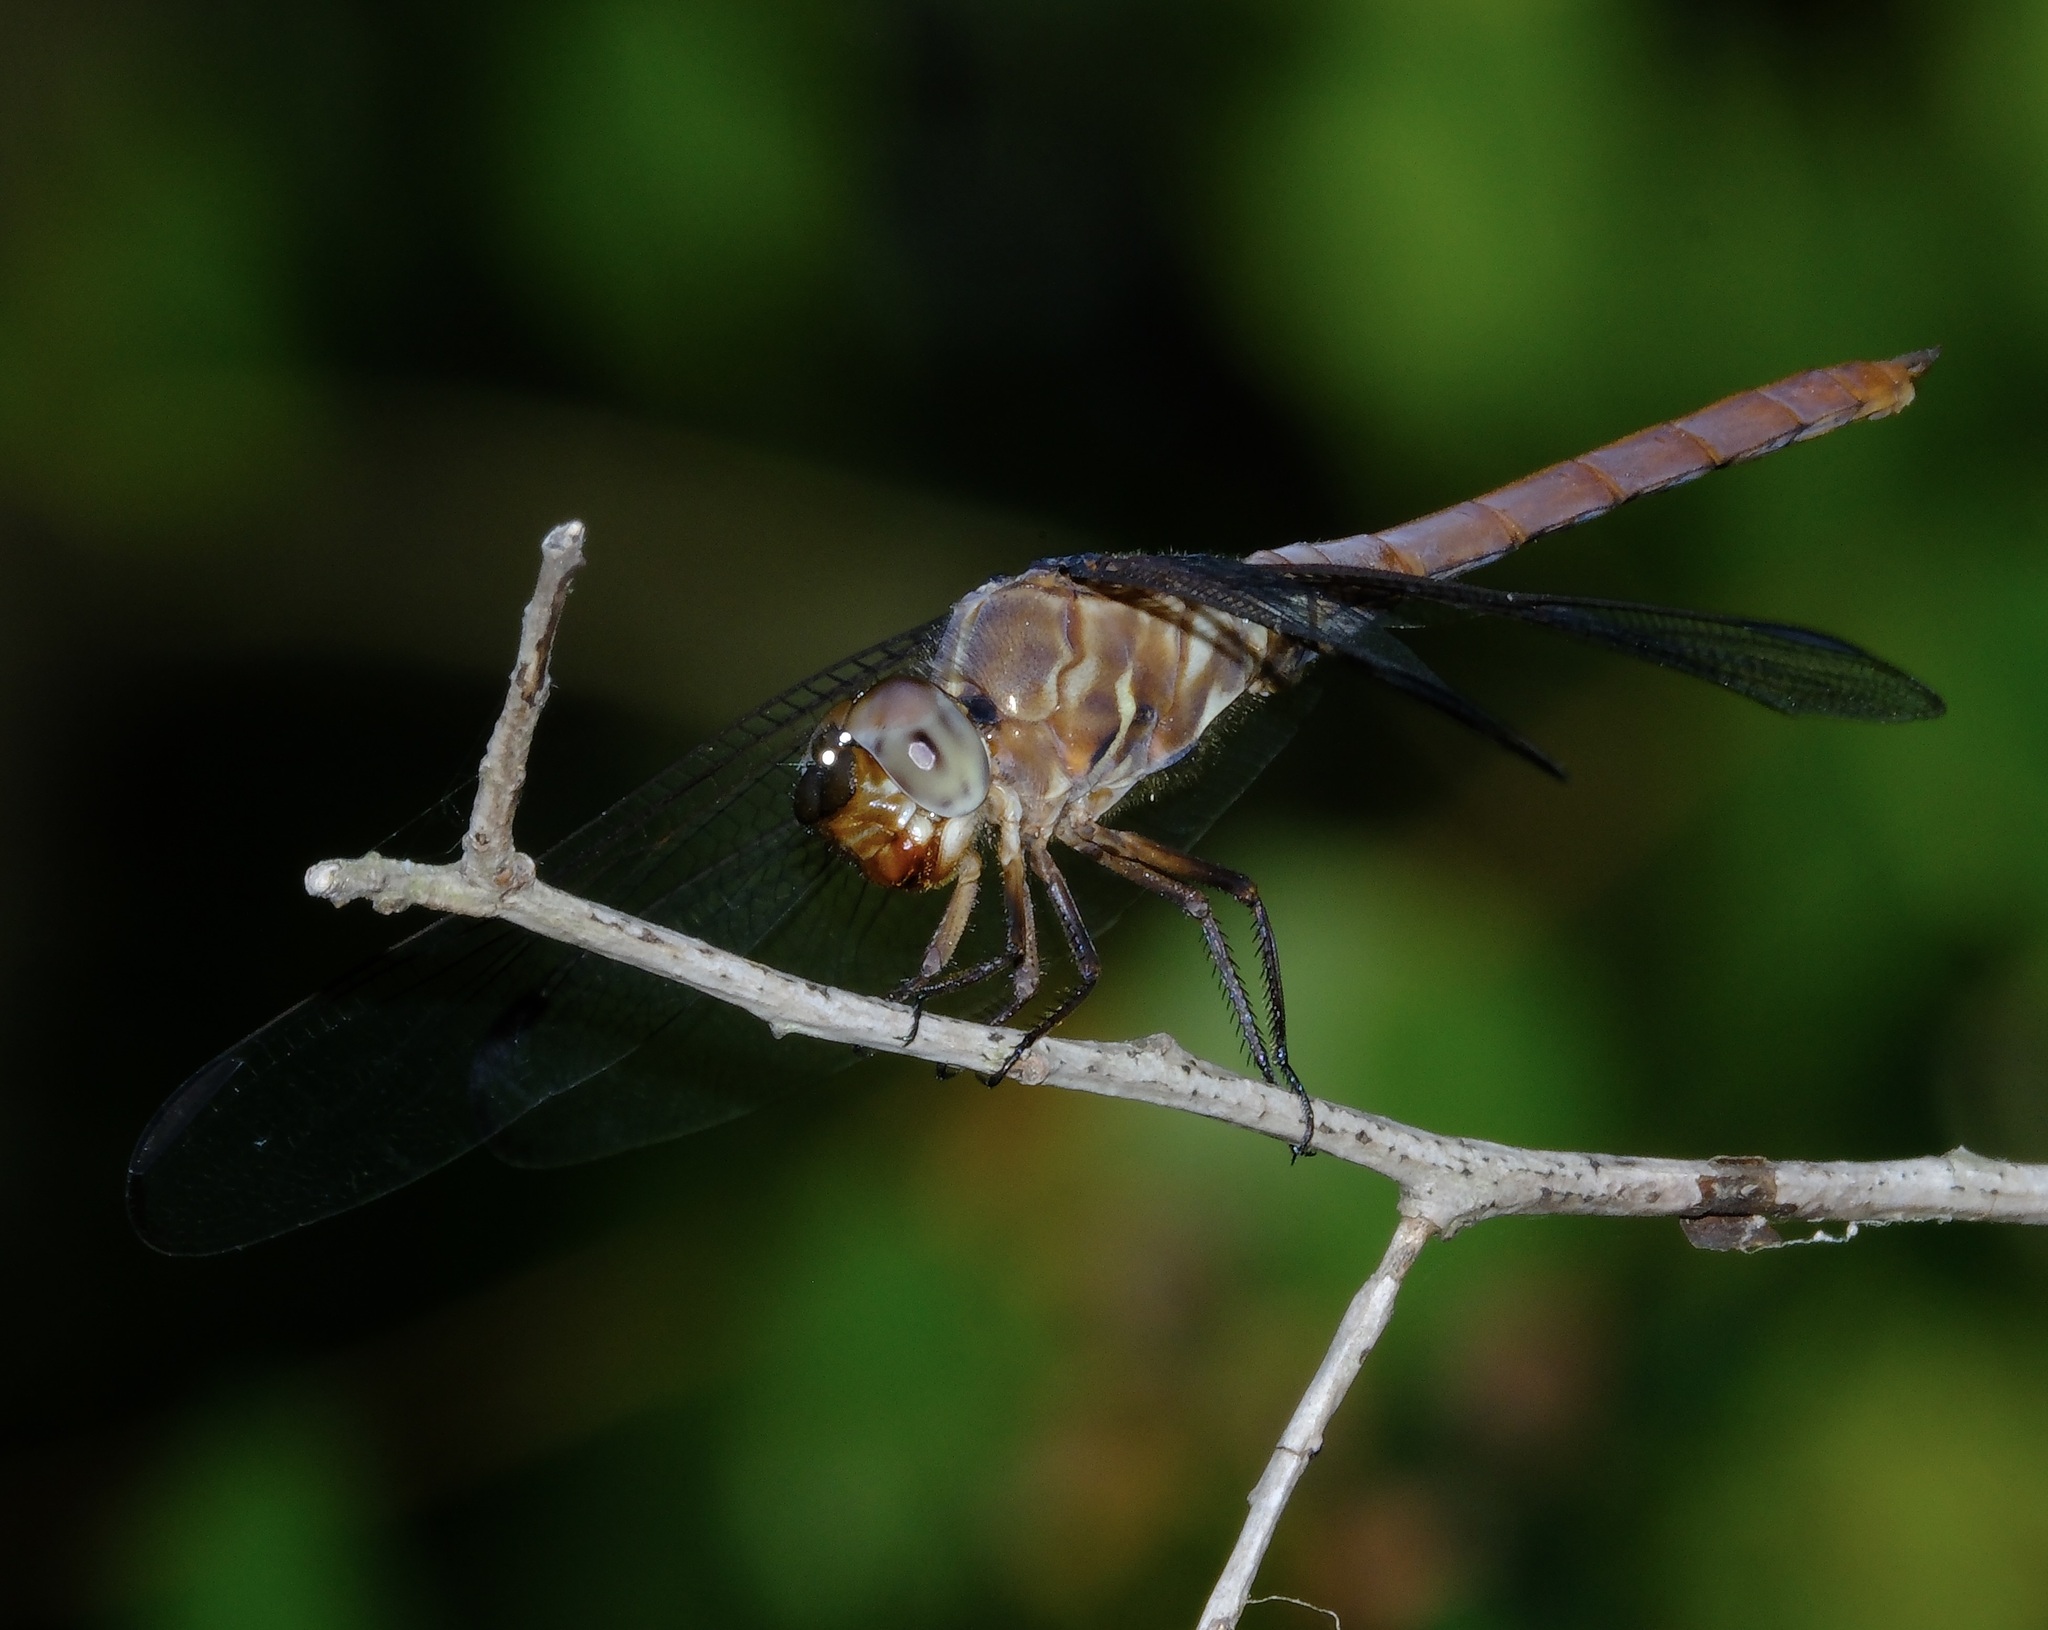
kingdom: Animalia
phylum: Arthropoda
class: Insecta
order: Odonata
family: Libellulidae
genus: Orthemis
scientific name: Orthemis ferruginea
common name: Roseate skimmer
